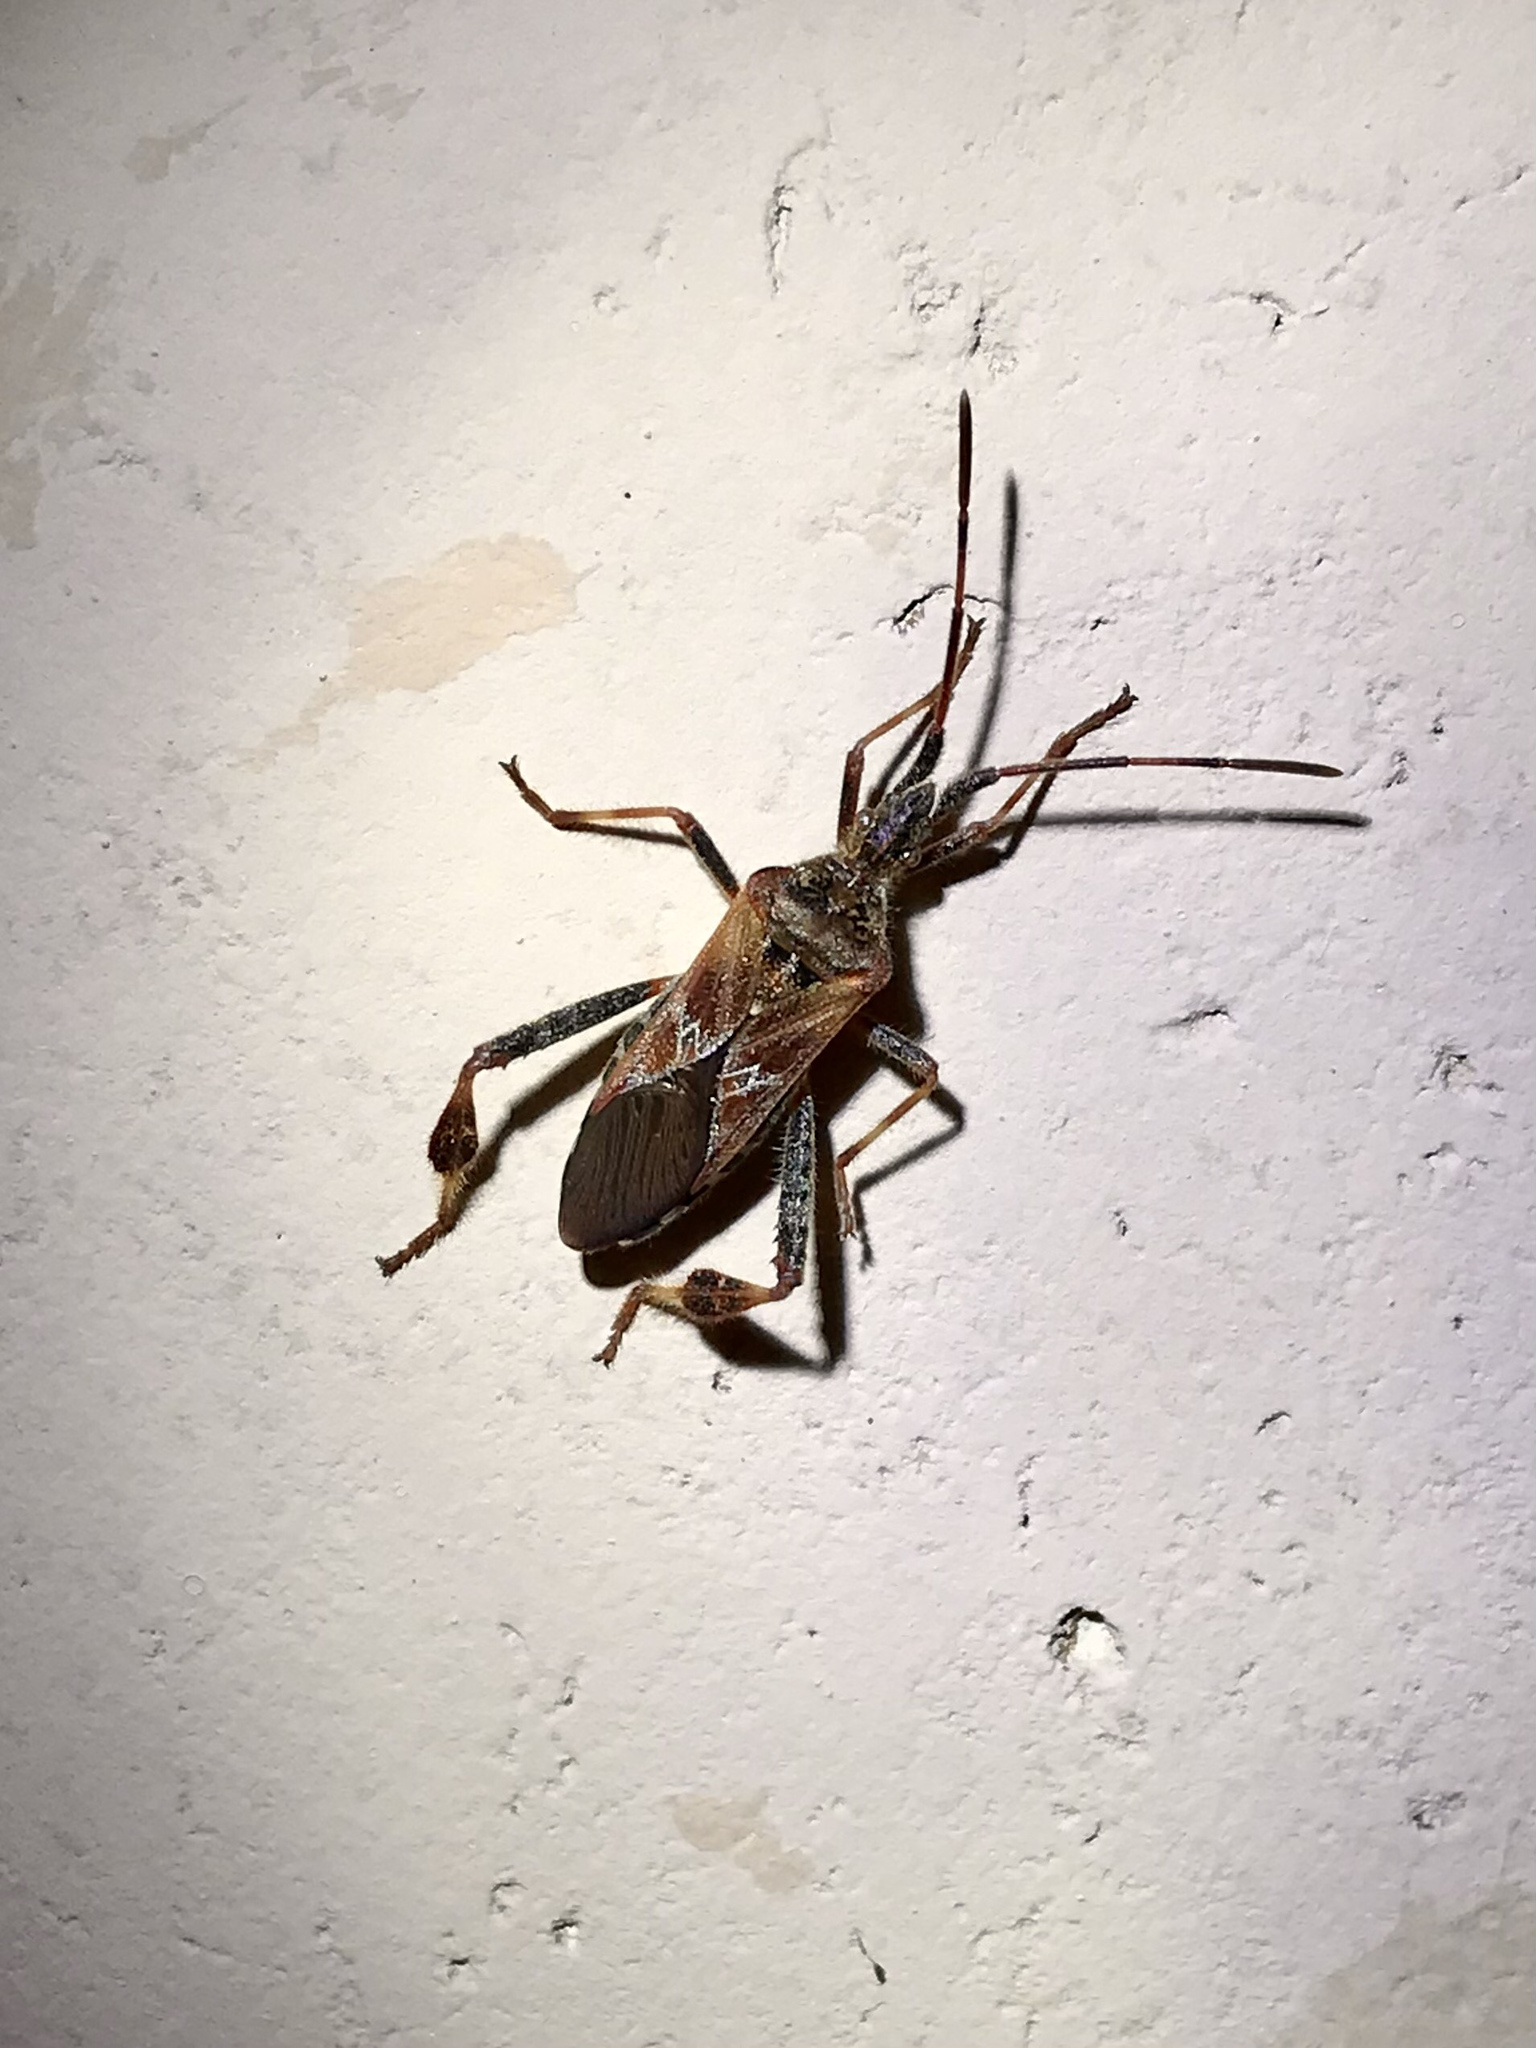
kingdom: Animalia
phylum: Arthropoda
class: Insecta
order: Hemiptera
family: Coreidae
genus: Leptoglossus
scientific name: Leptoglossus occidentalis
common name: Western conifer-seed bug
